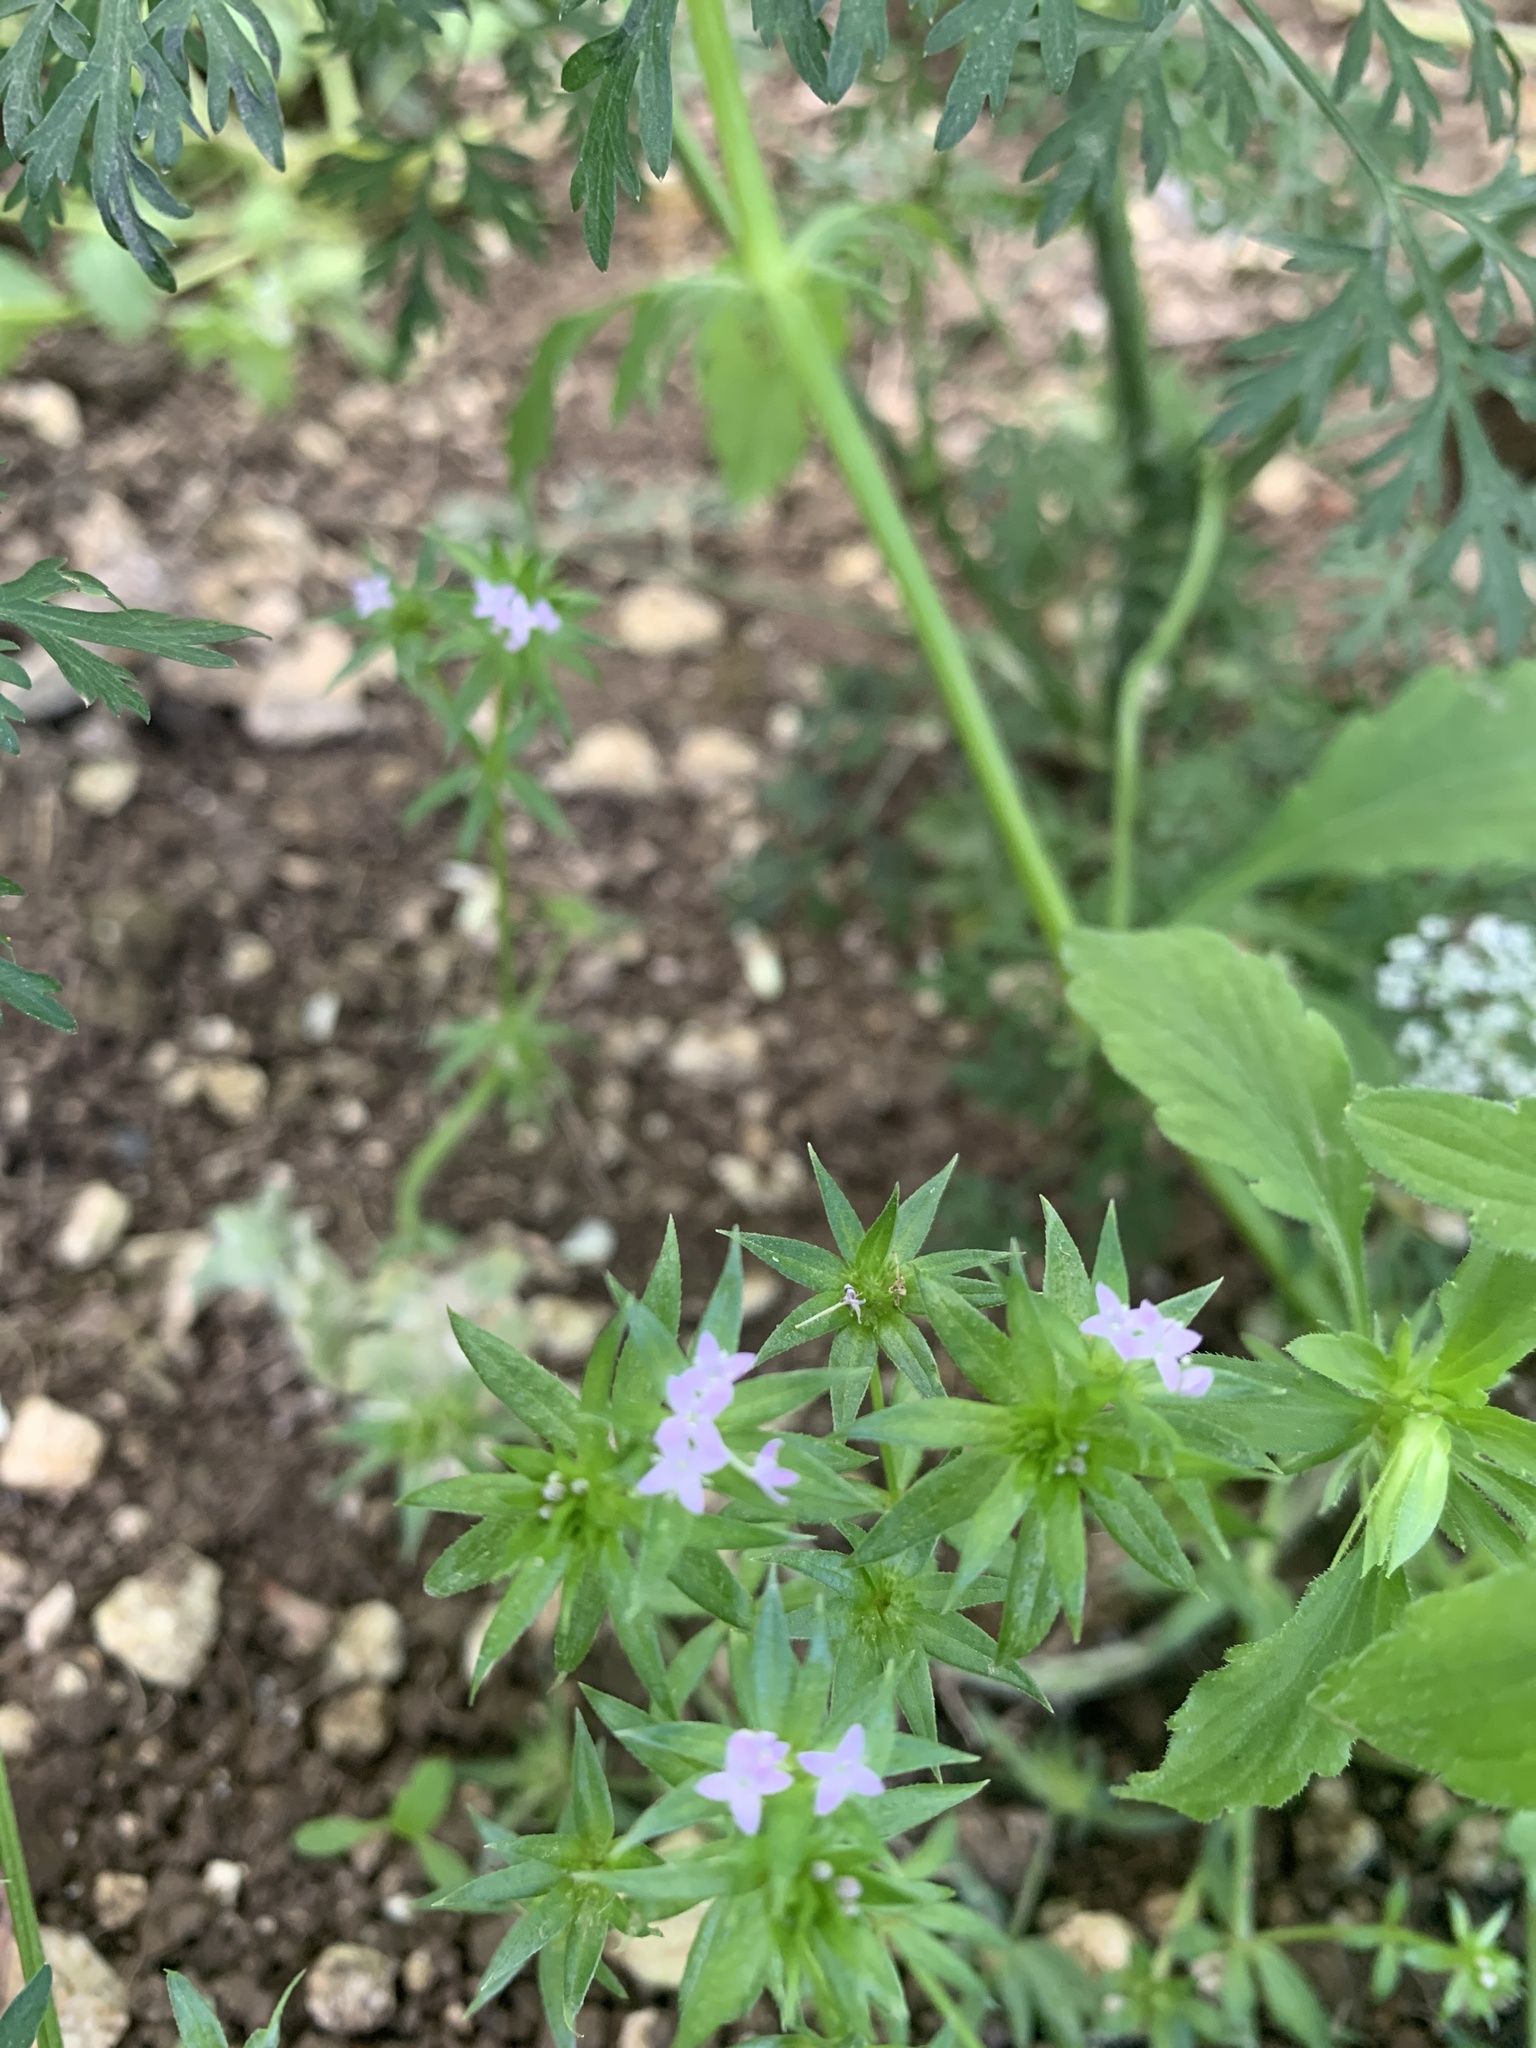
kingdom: Plantae
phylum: Tracheophyta
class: Magnoliopsida
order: Gentianales
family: Rubiaceae
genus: Sherardia
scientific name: Sherardia arvensis
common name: Field madder
